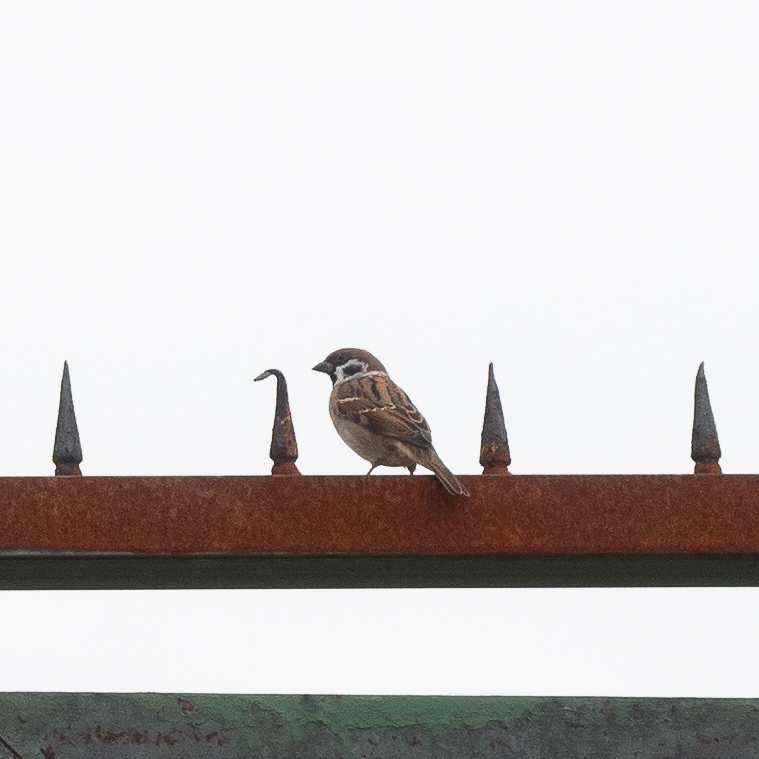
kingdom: Animalia
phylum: Chordata
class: Aves
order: Passeriformes
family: Passeridae
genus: Passer
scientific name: Passer montanus
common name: Eurasian tree sparrow
